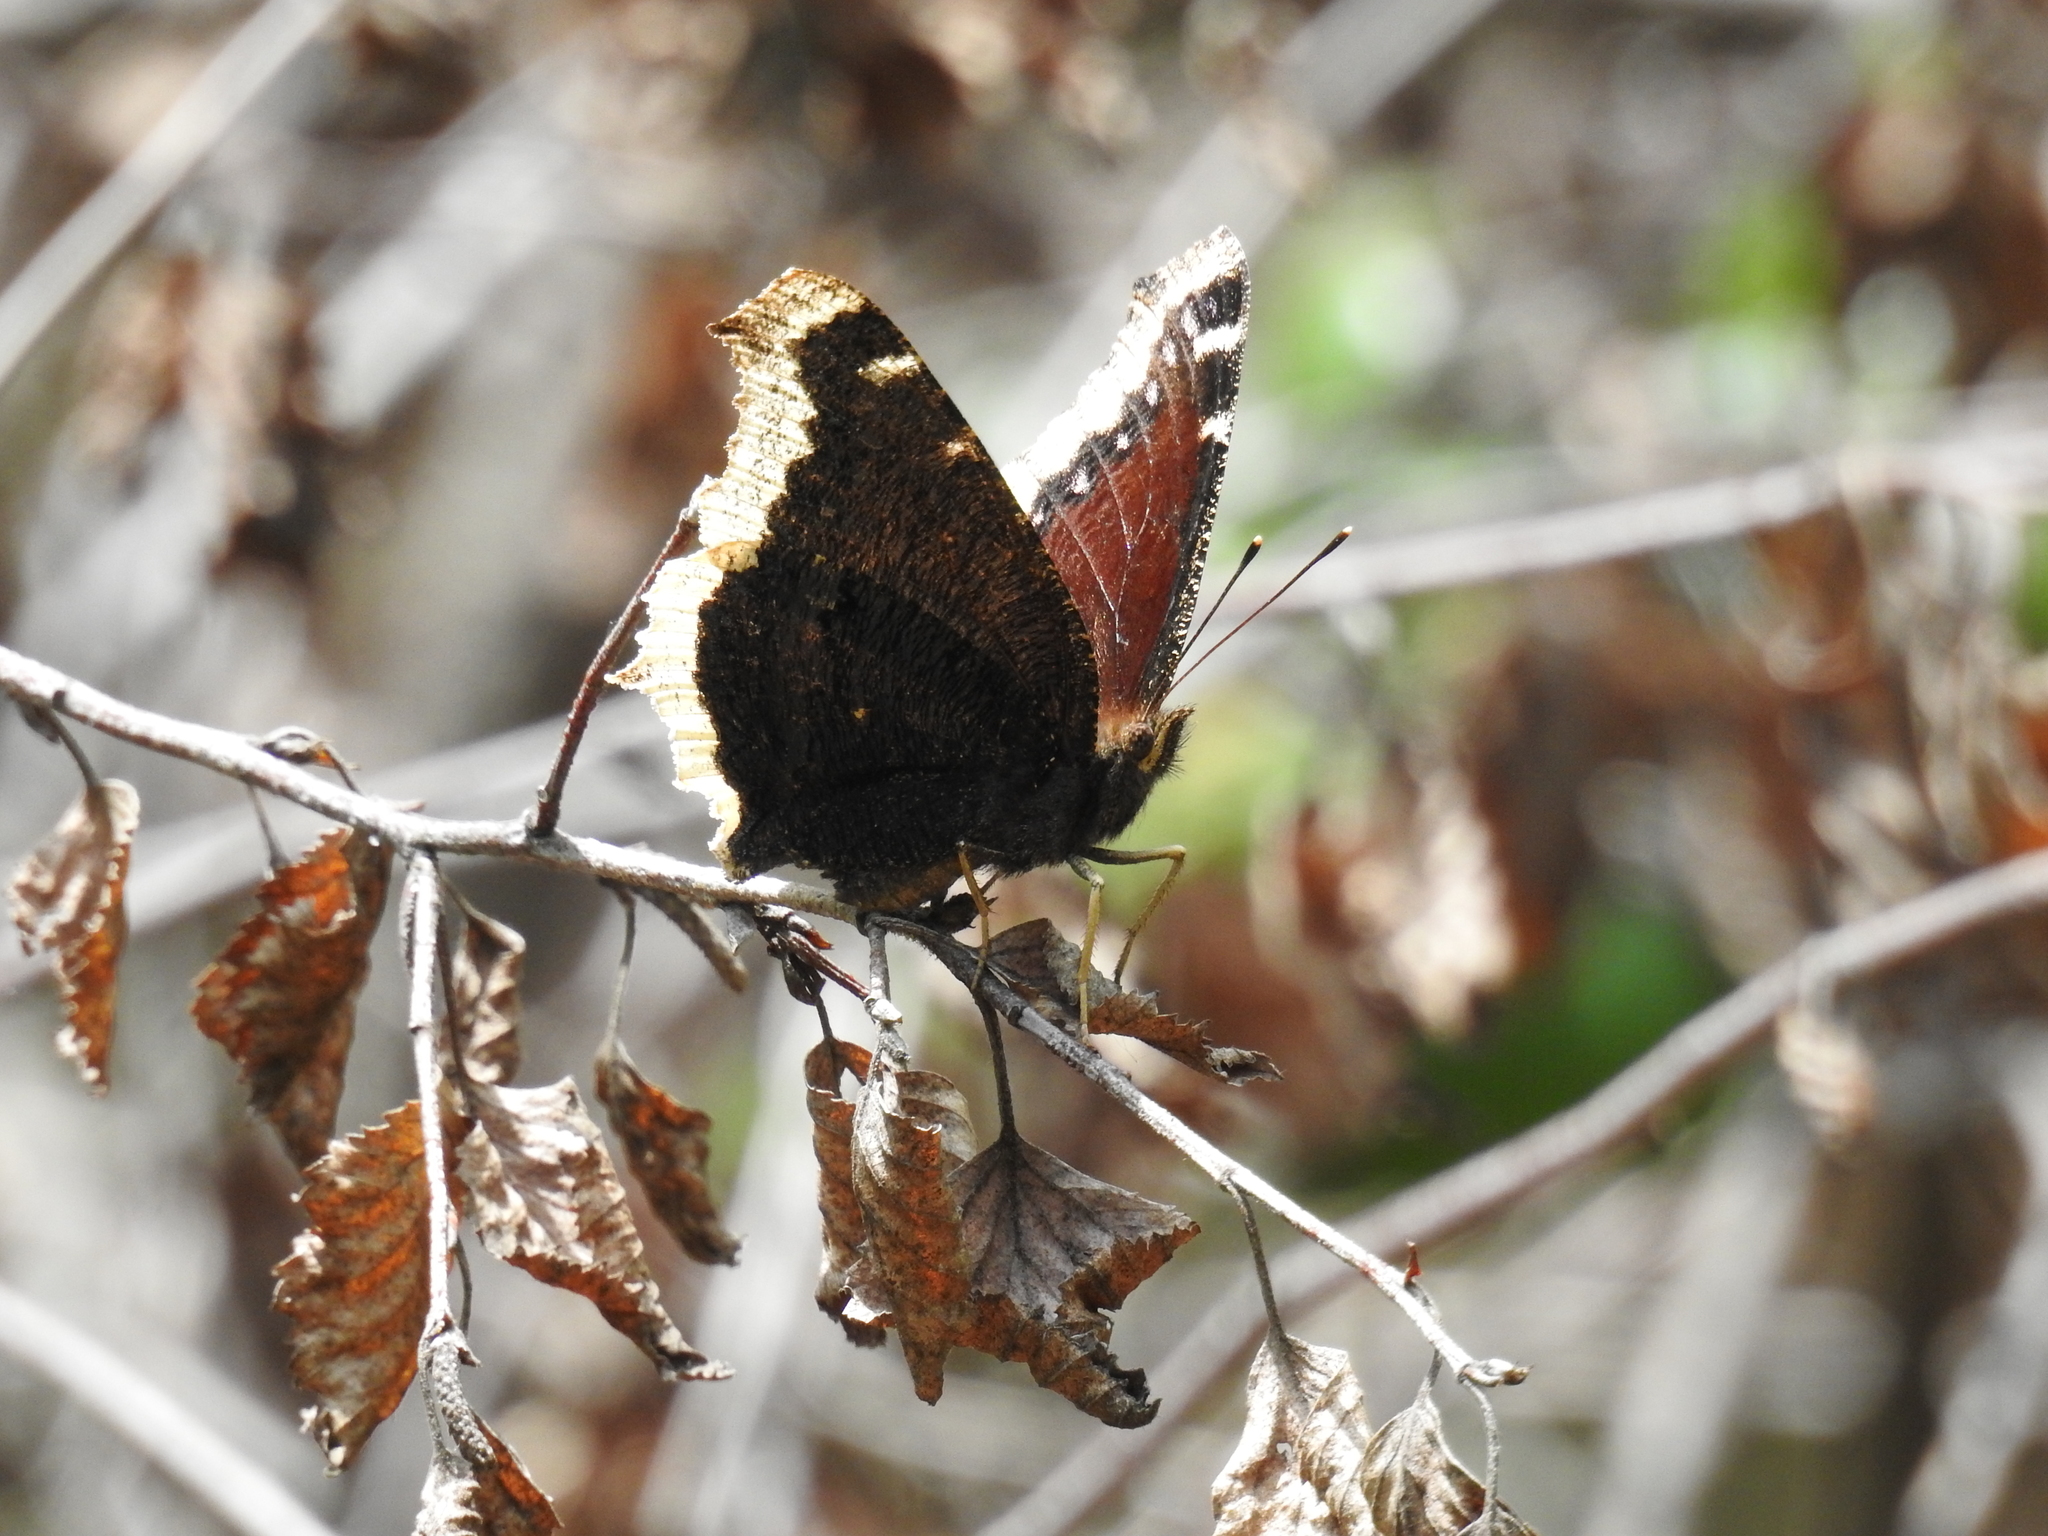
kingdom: Animalia
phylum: Arthropoda
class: Insecta
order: Lepidoptera
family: Nymphalidae
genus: Nymphalis
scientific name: Nymphalis antiopa
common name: Camberwell beauty
